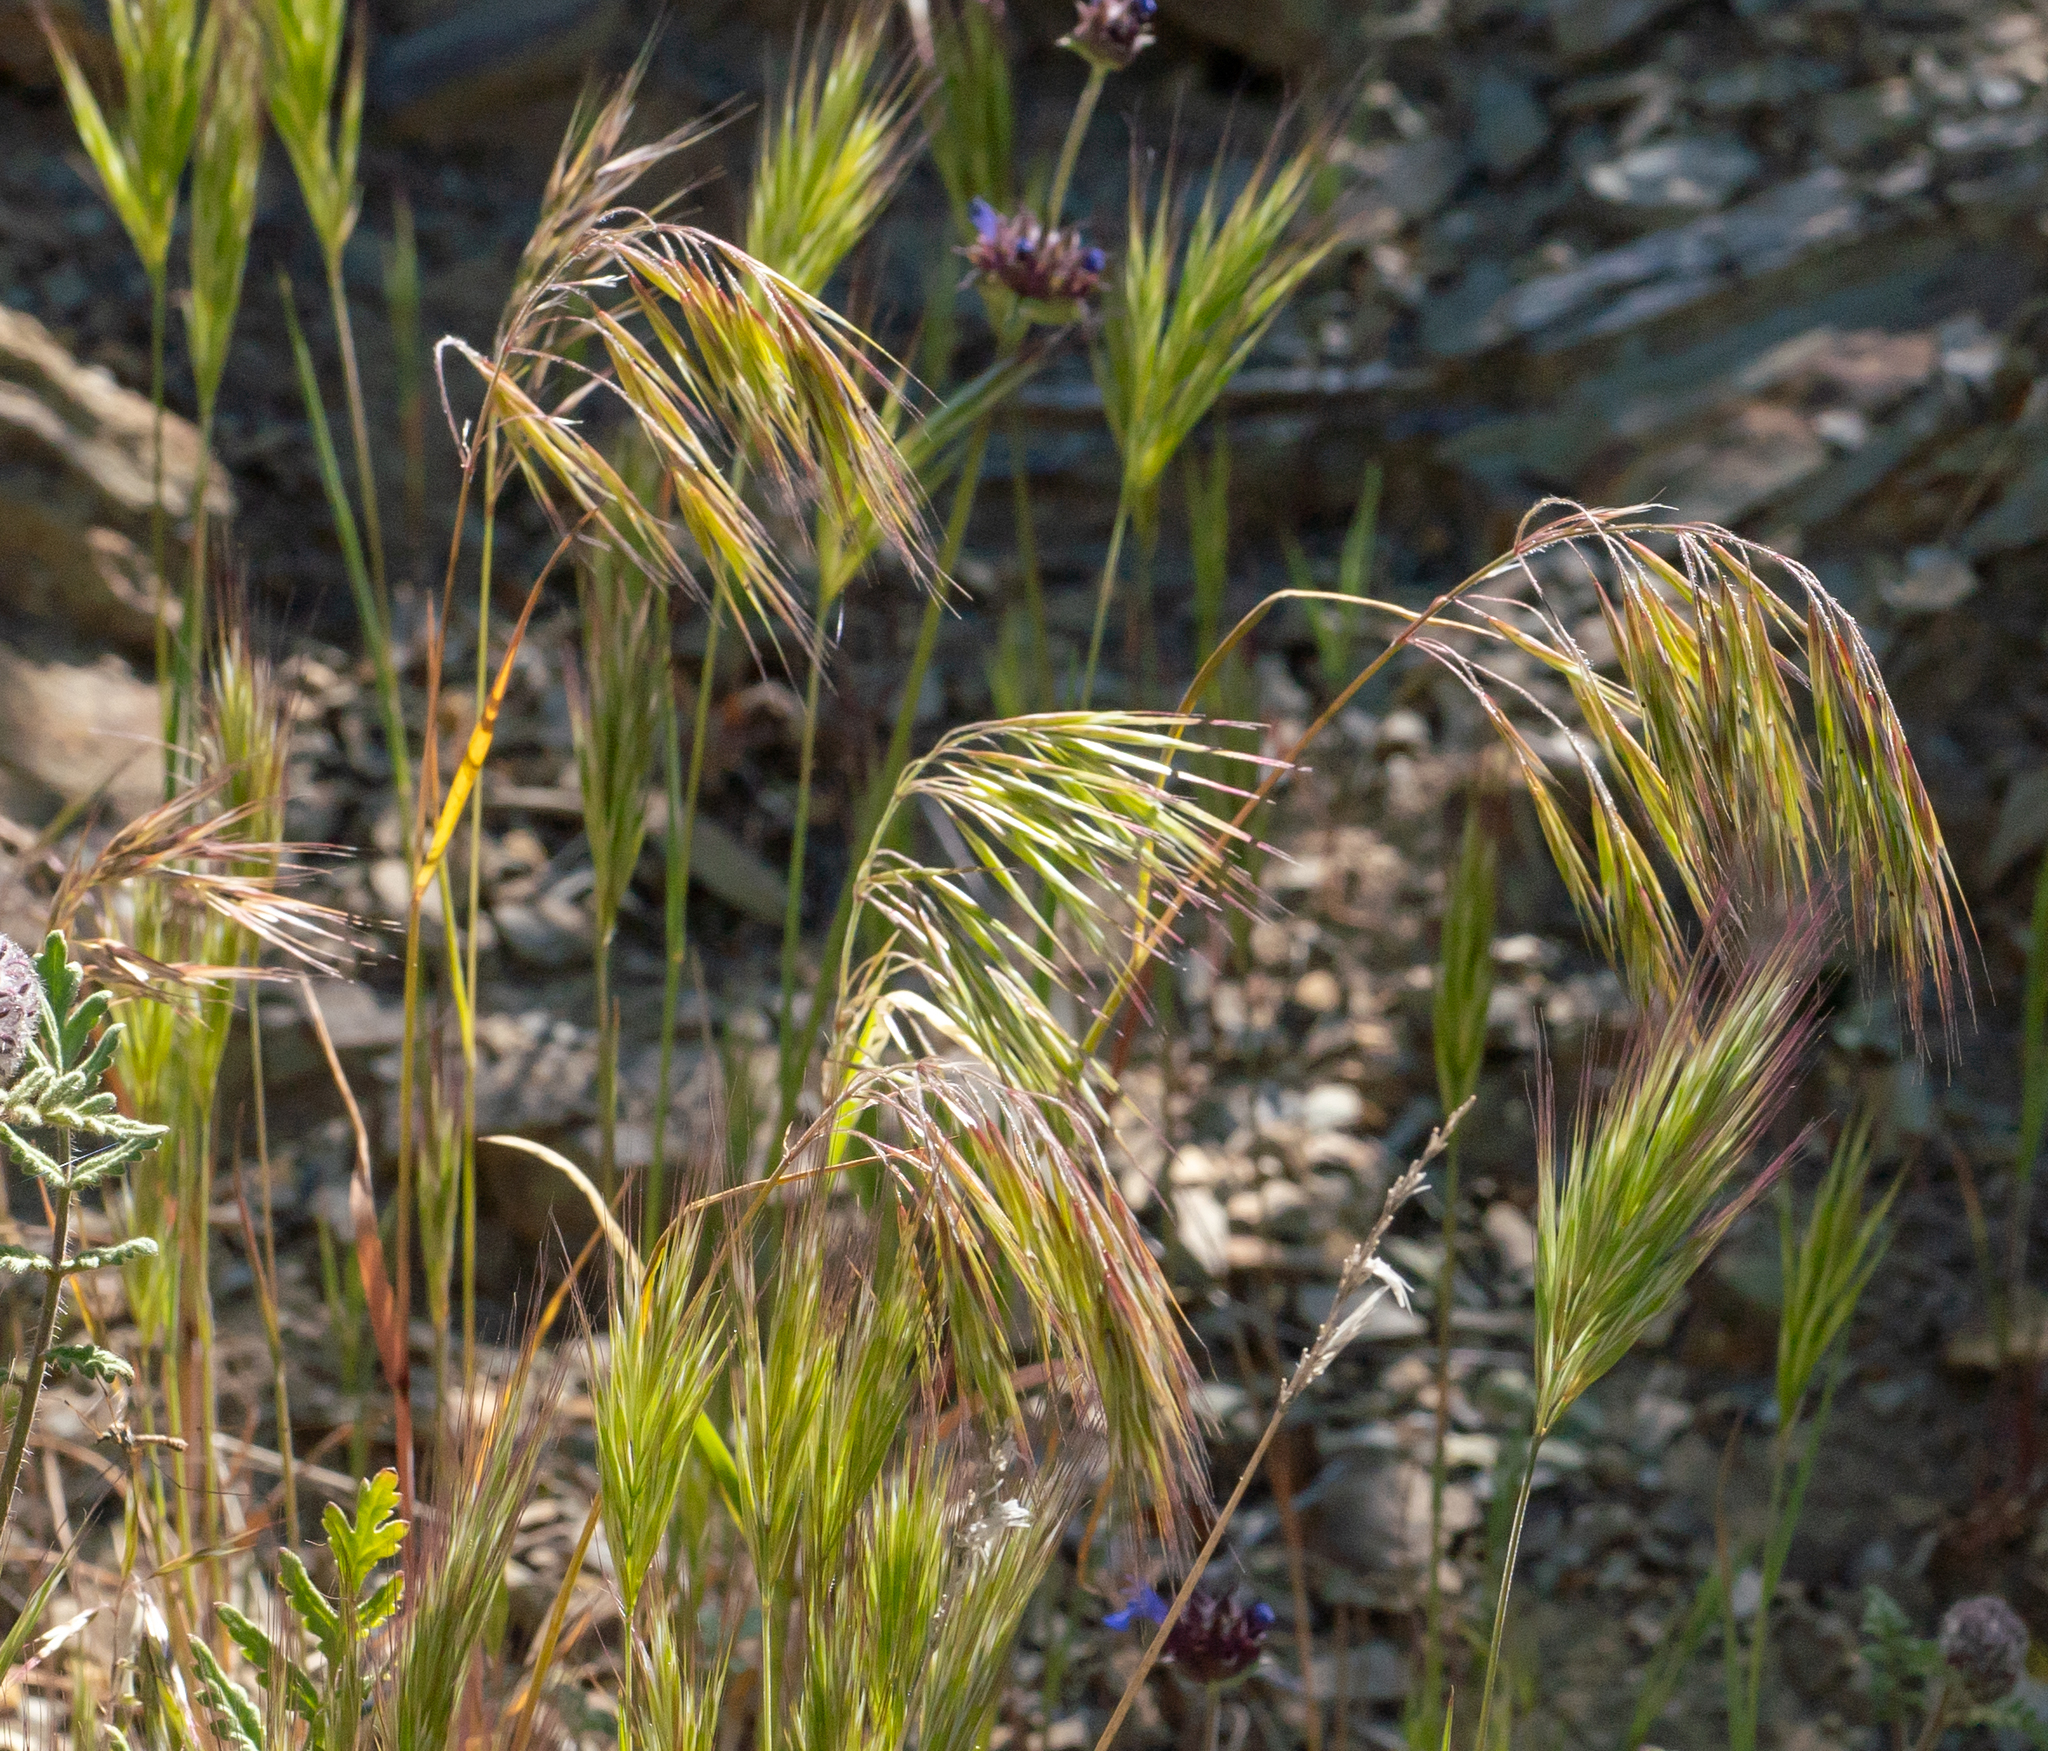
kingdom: Plantae
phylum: Tracheophyta
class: Liliopsida
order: Poales
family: Poaceae
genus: Bromus
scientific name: Bromus tectorum
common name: Cheatgrass
